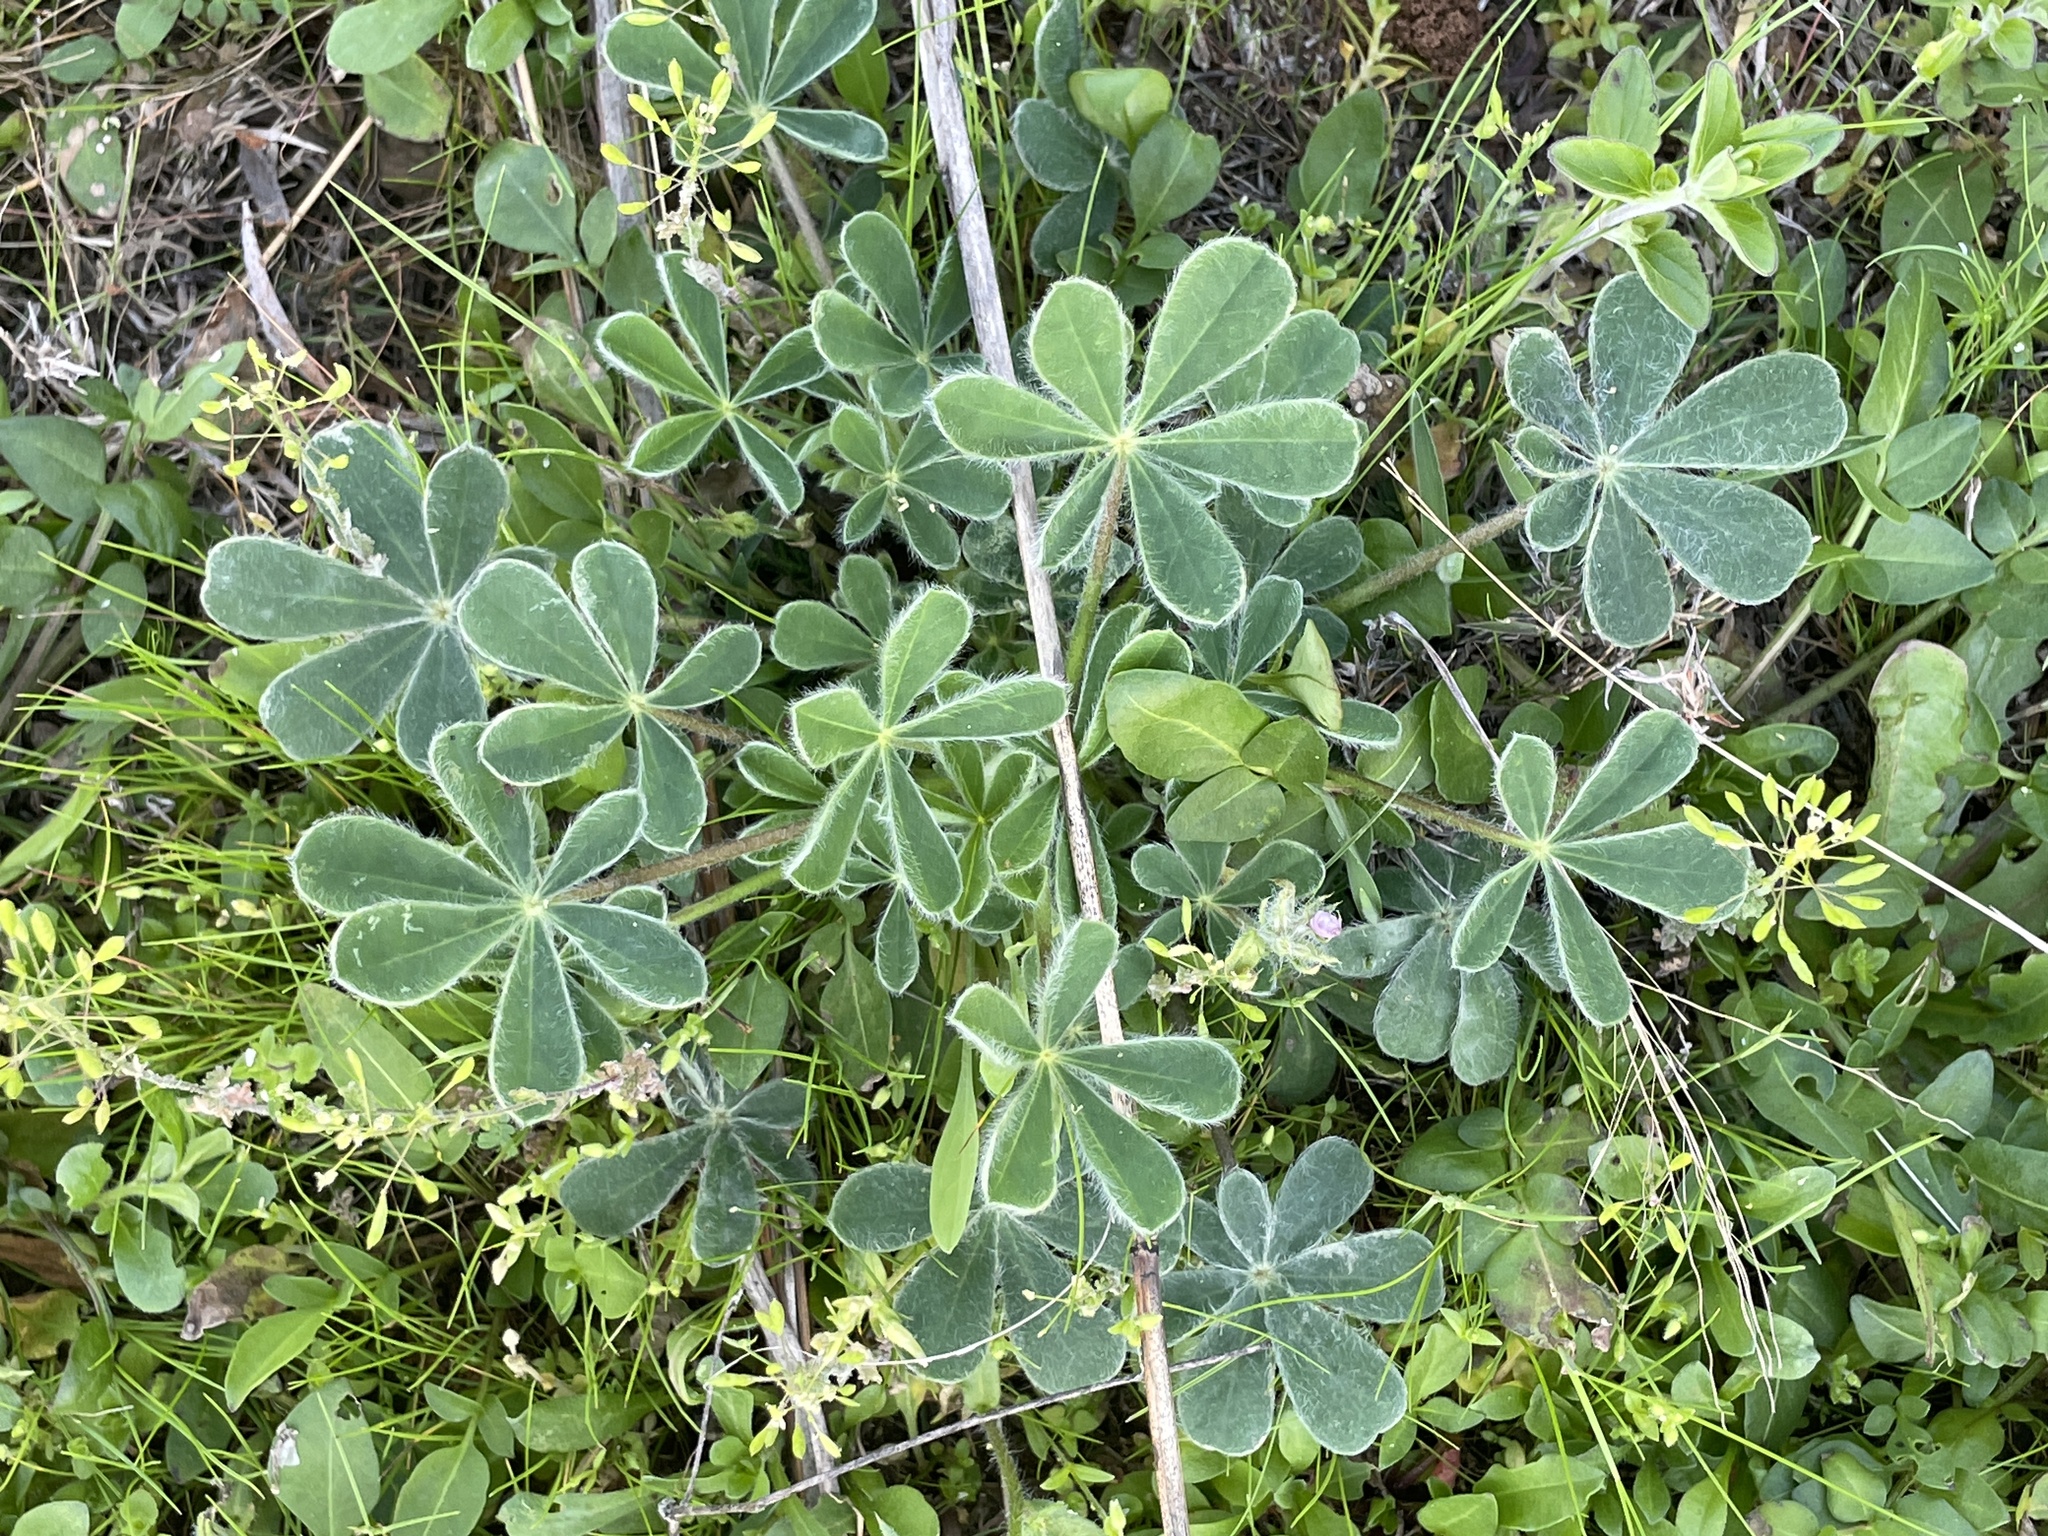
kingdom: Plantae
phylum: Tracheophyta
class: Magnoliopsida
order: Fabales
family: Fabaceae
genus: Lupinus
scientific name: Lupinus subcarnosus
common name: Texas bluebonnet
